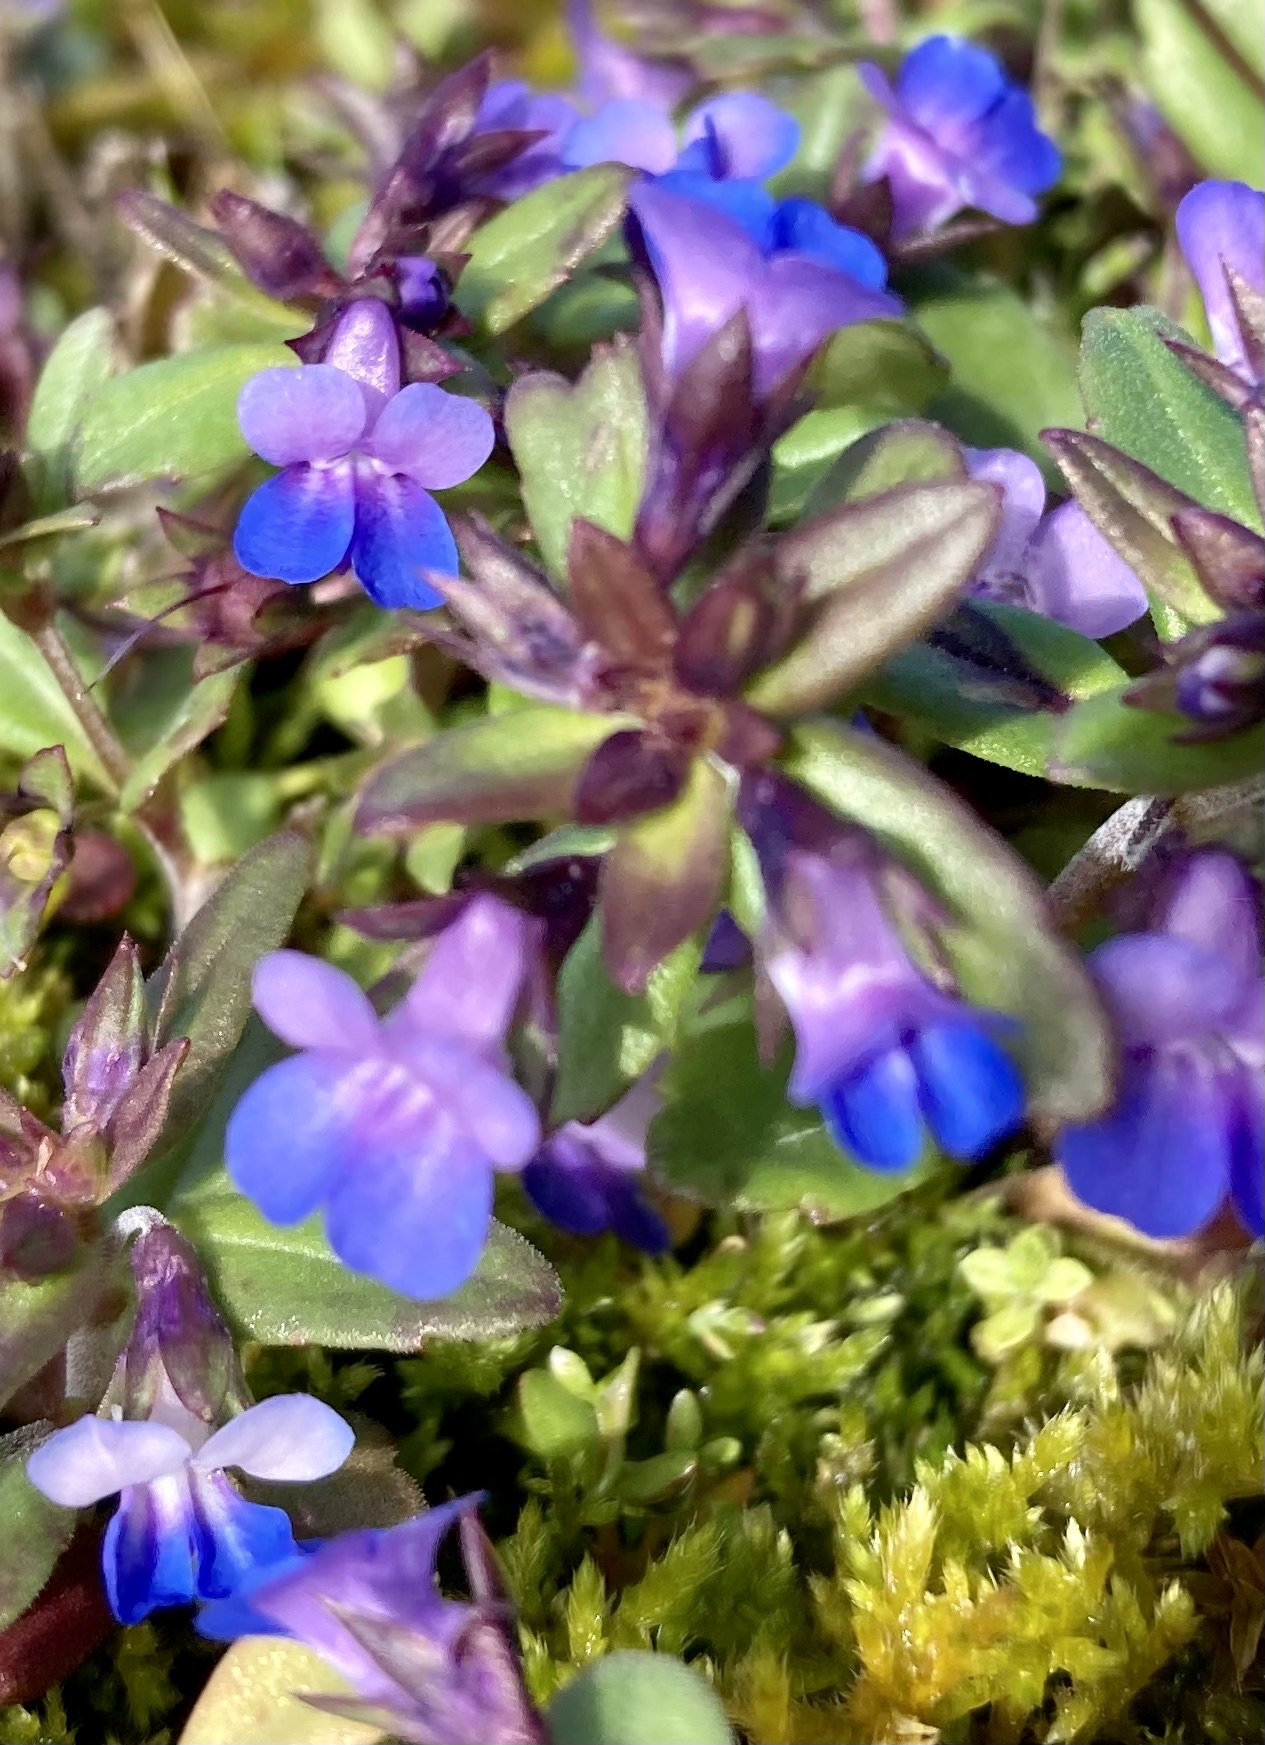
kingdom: Plantae
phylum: Tracheophyta
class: Magnoliopsida
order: Lamiales
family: Plantaginaceae
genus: Collinsia
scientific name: Collinsia parviflora
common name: Blue-lips
